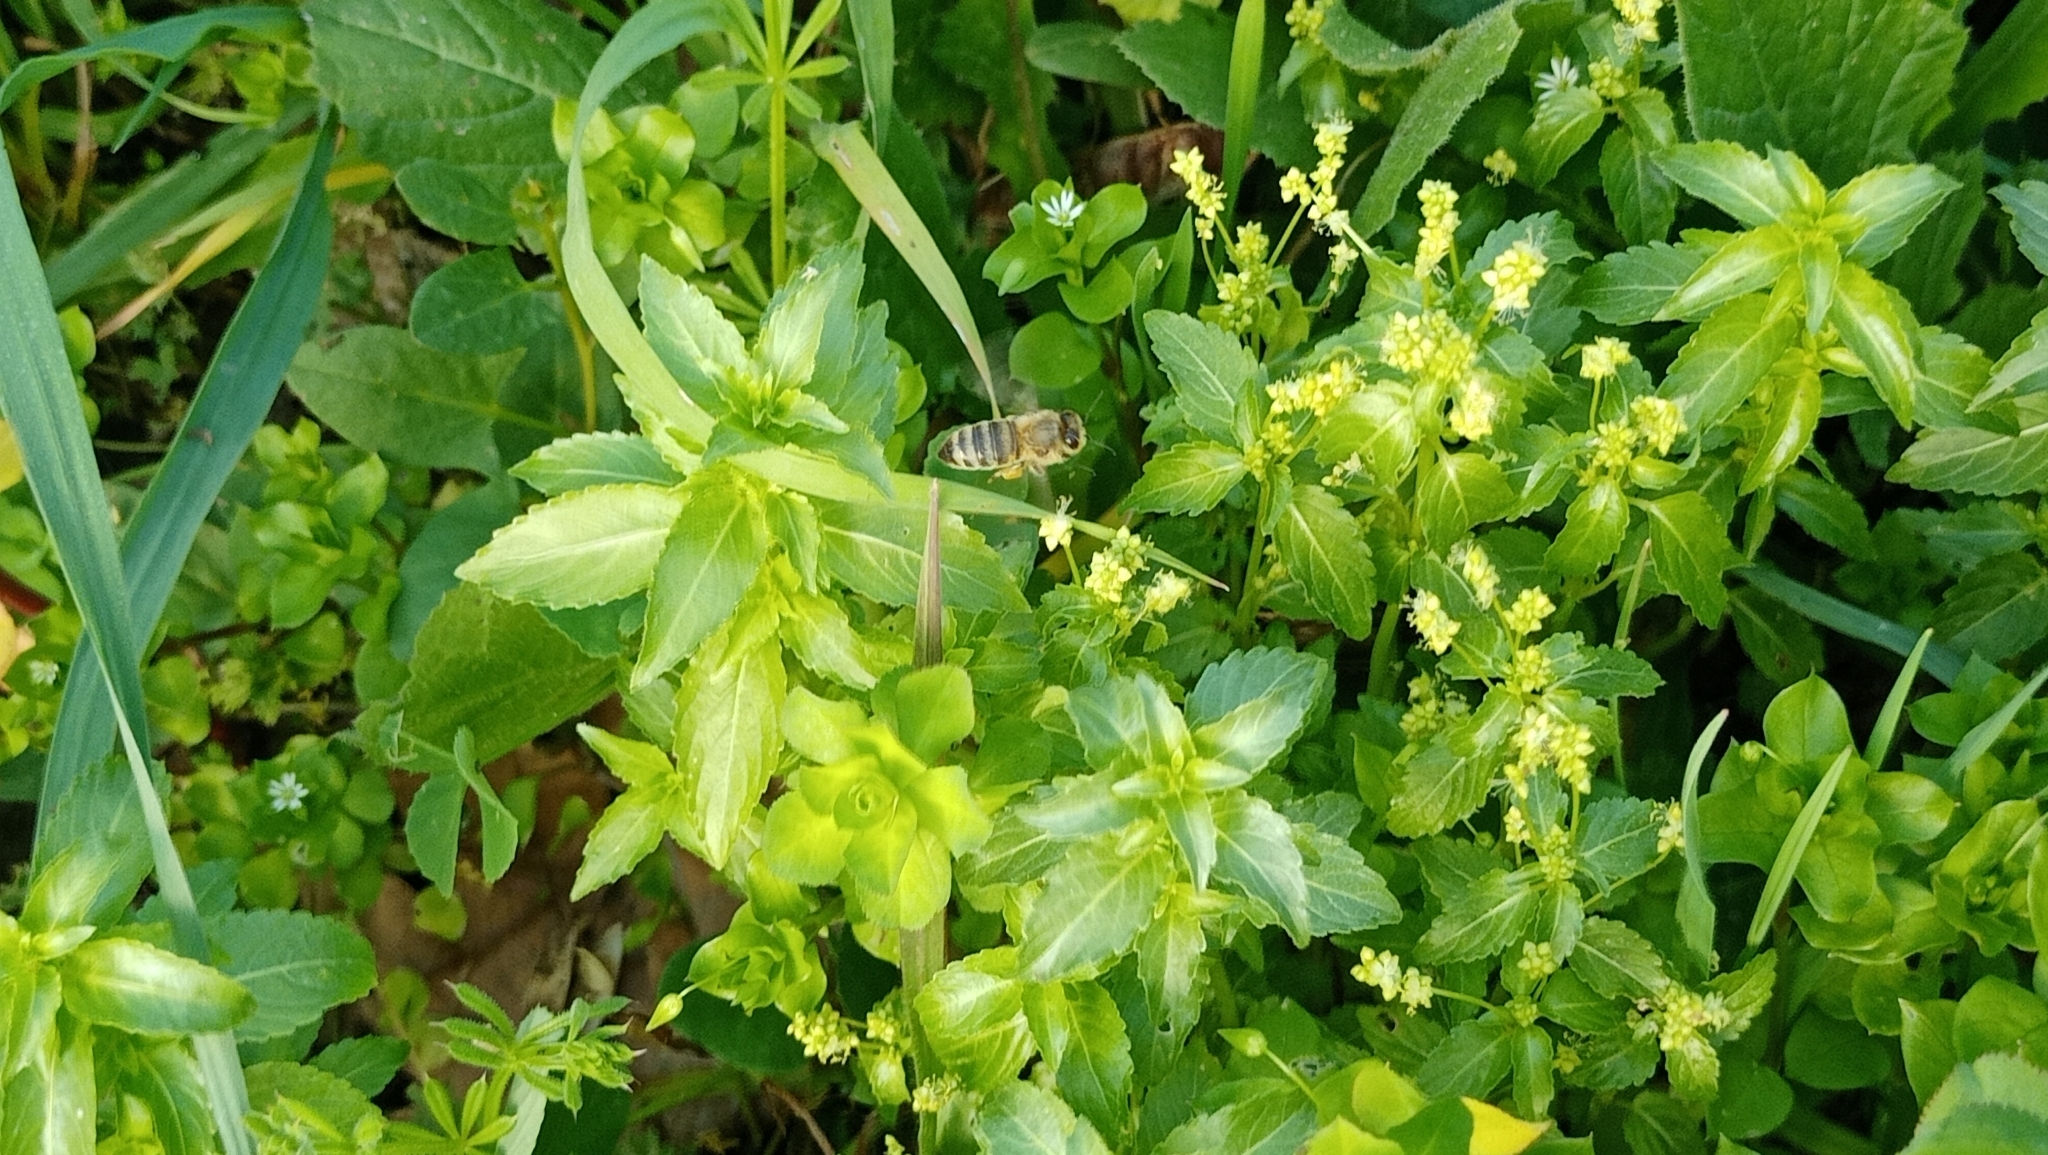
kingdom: Animalia
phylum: Arthropoda
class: Insecta
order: Hymenoptera
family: Apidae
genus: Apis
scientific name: Apis mellifera
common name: Honey bee
